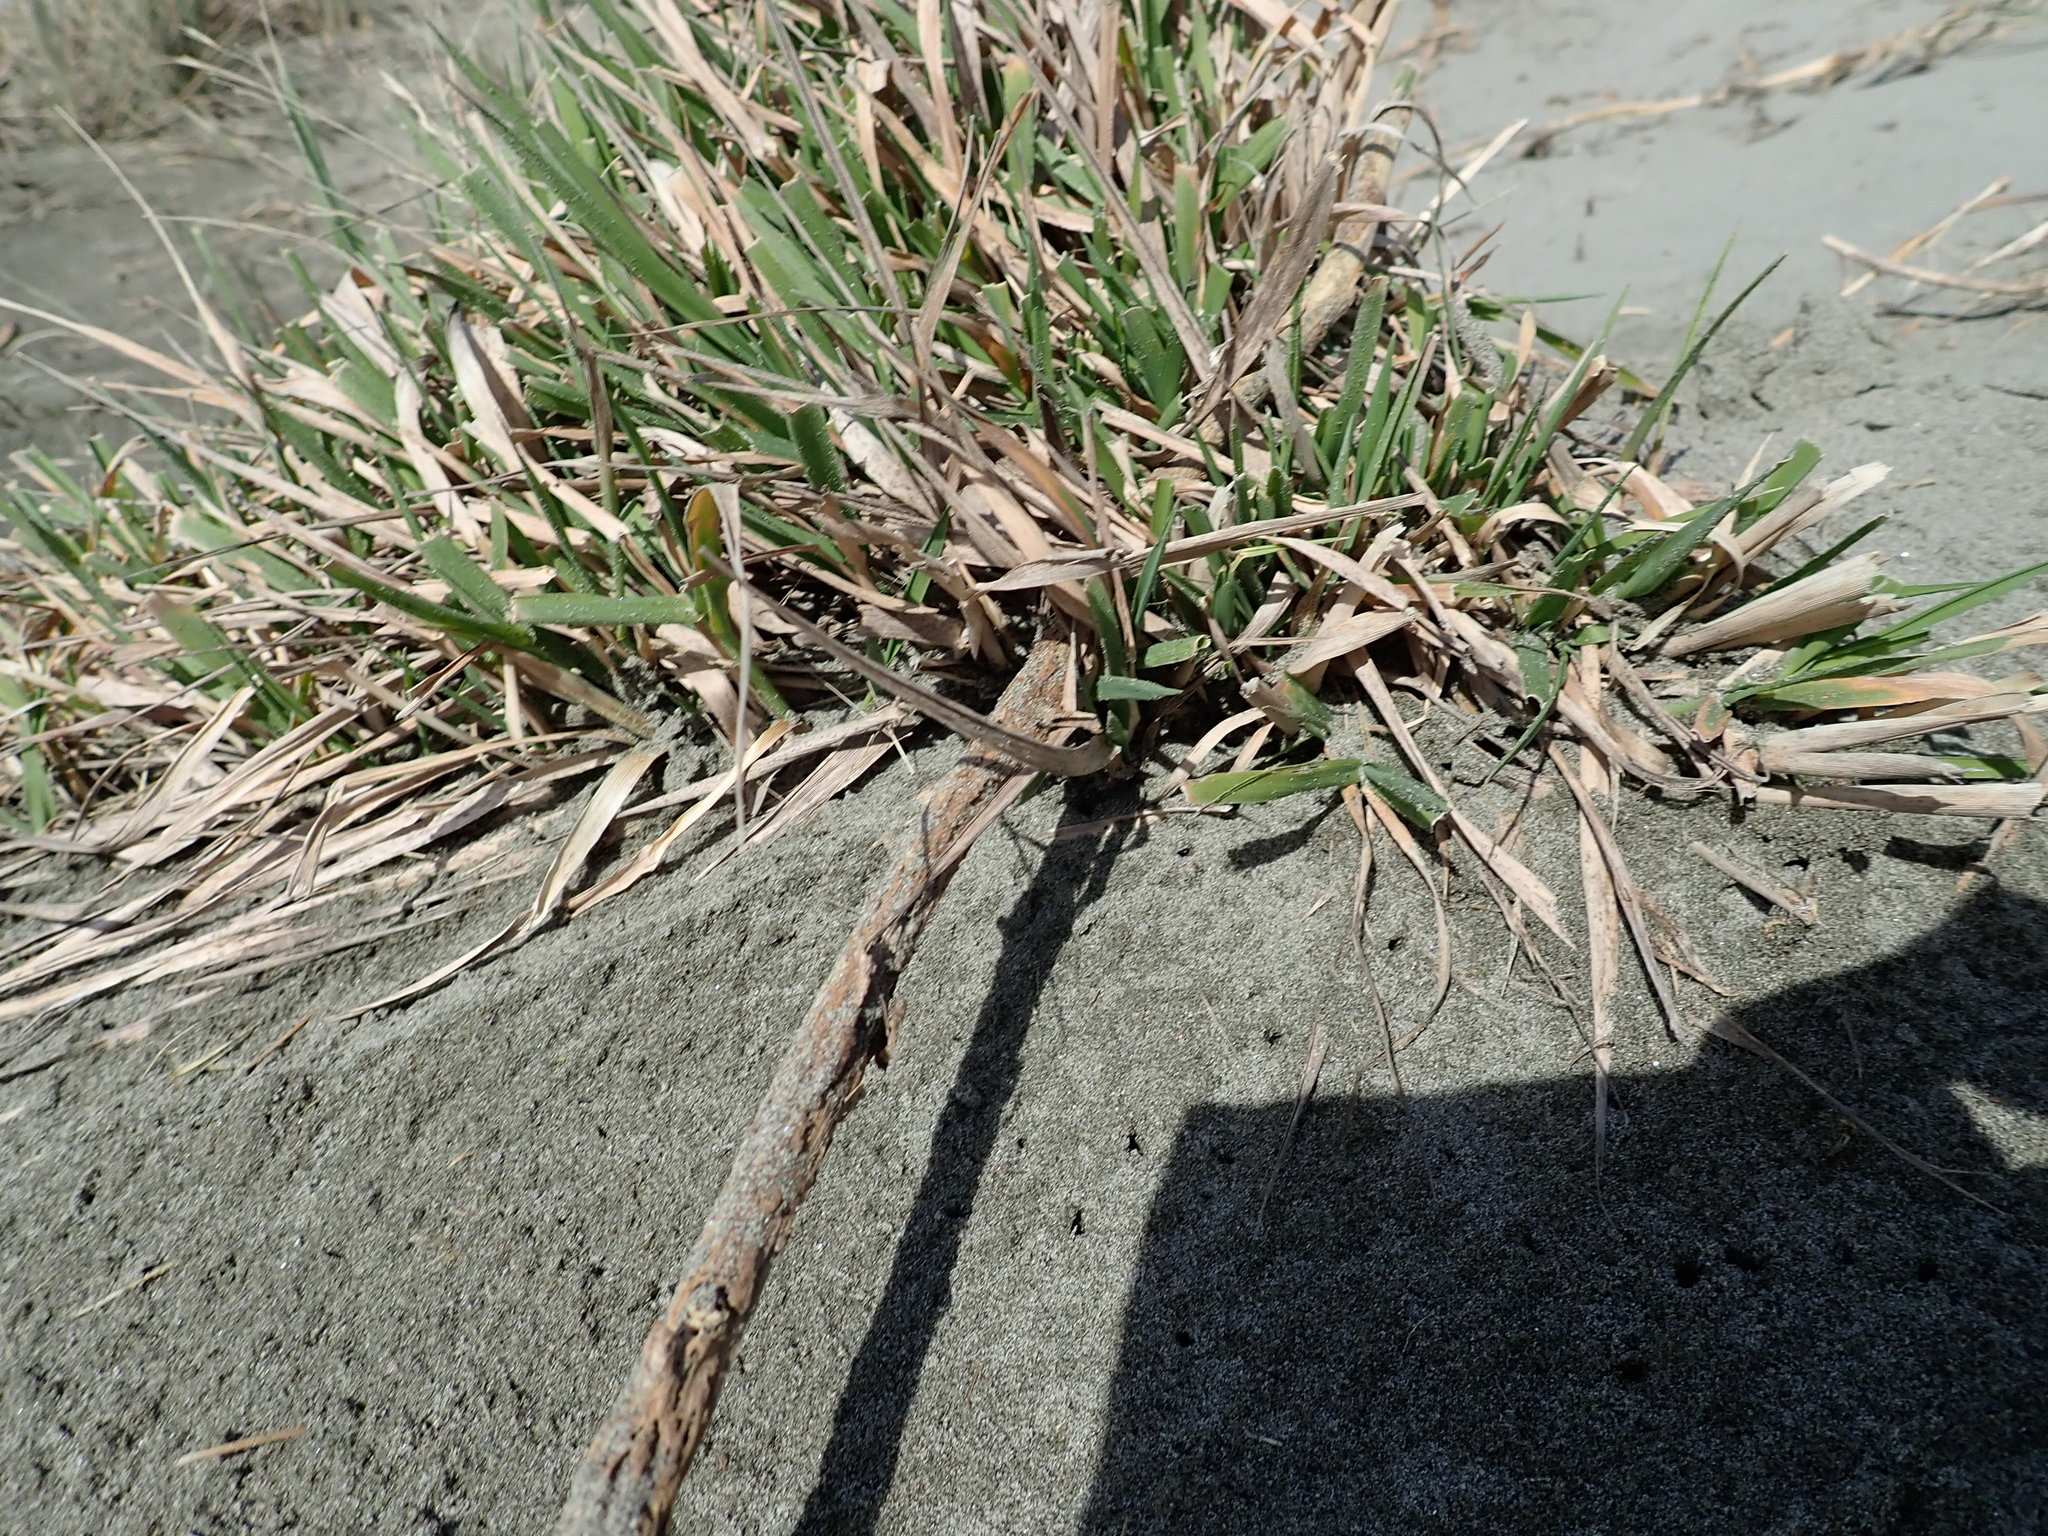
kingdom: Plantae
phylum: Tracheophyta
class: Liliopsida
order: Poales
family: Poaceae
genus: Lachnagrostis
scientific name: Lachnagrostis billardierei
